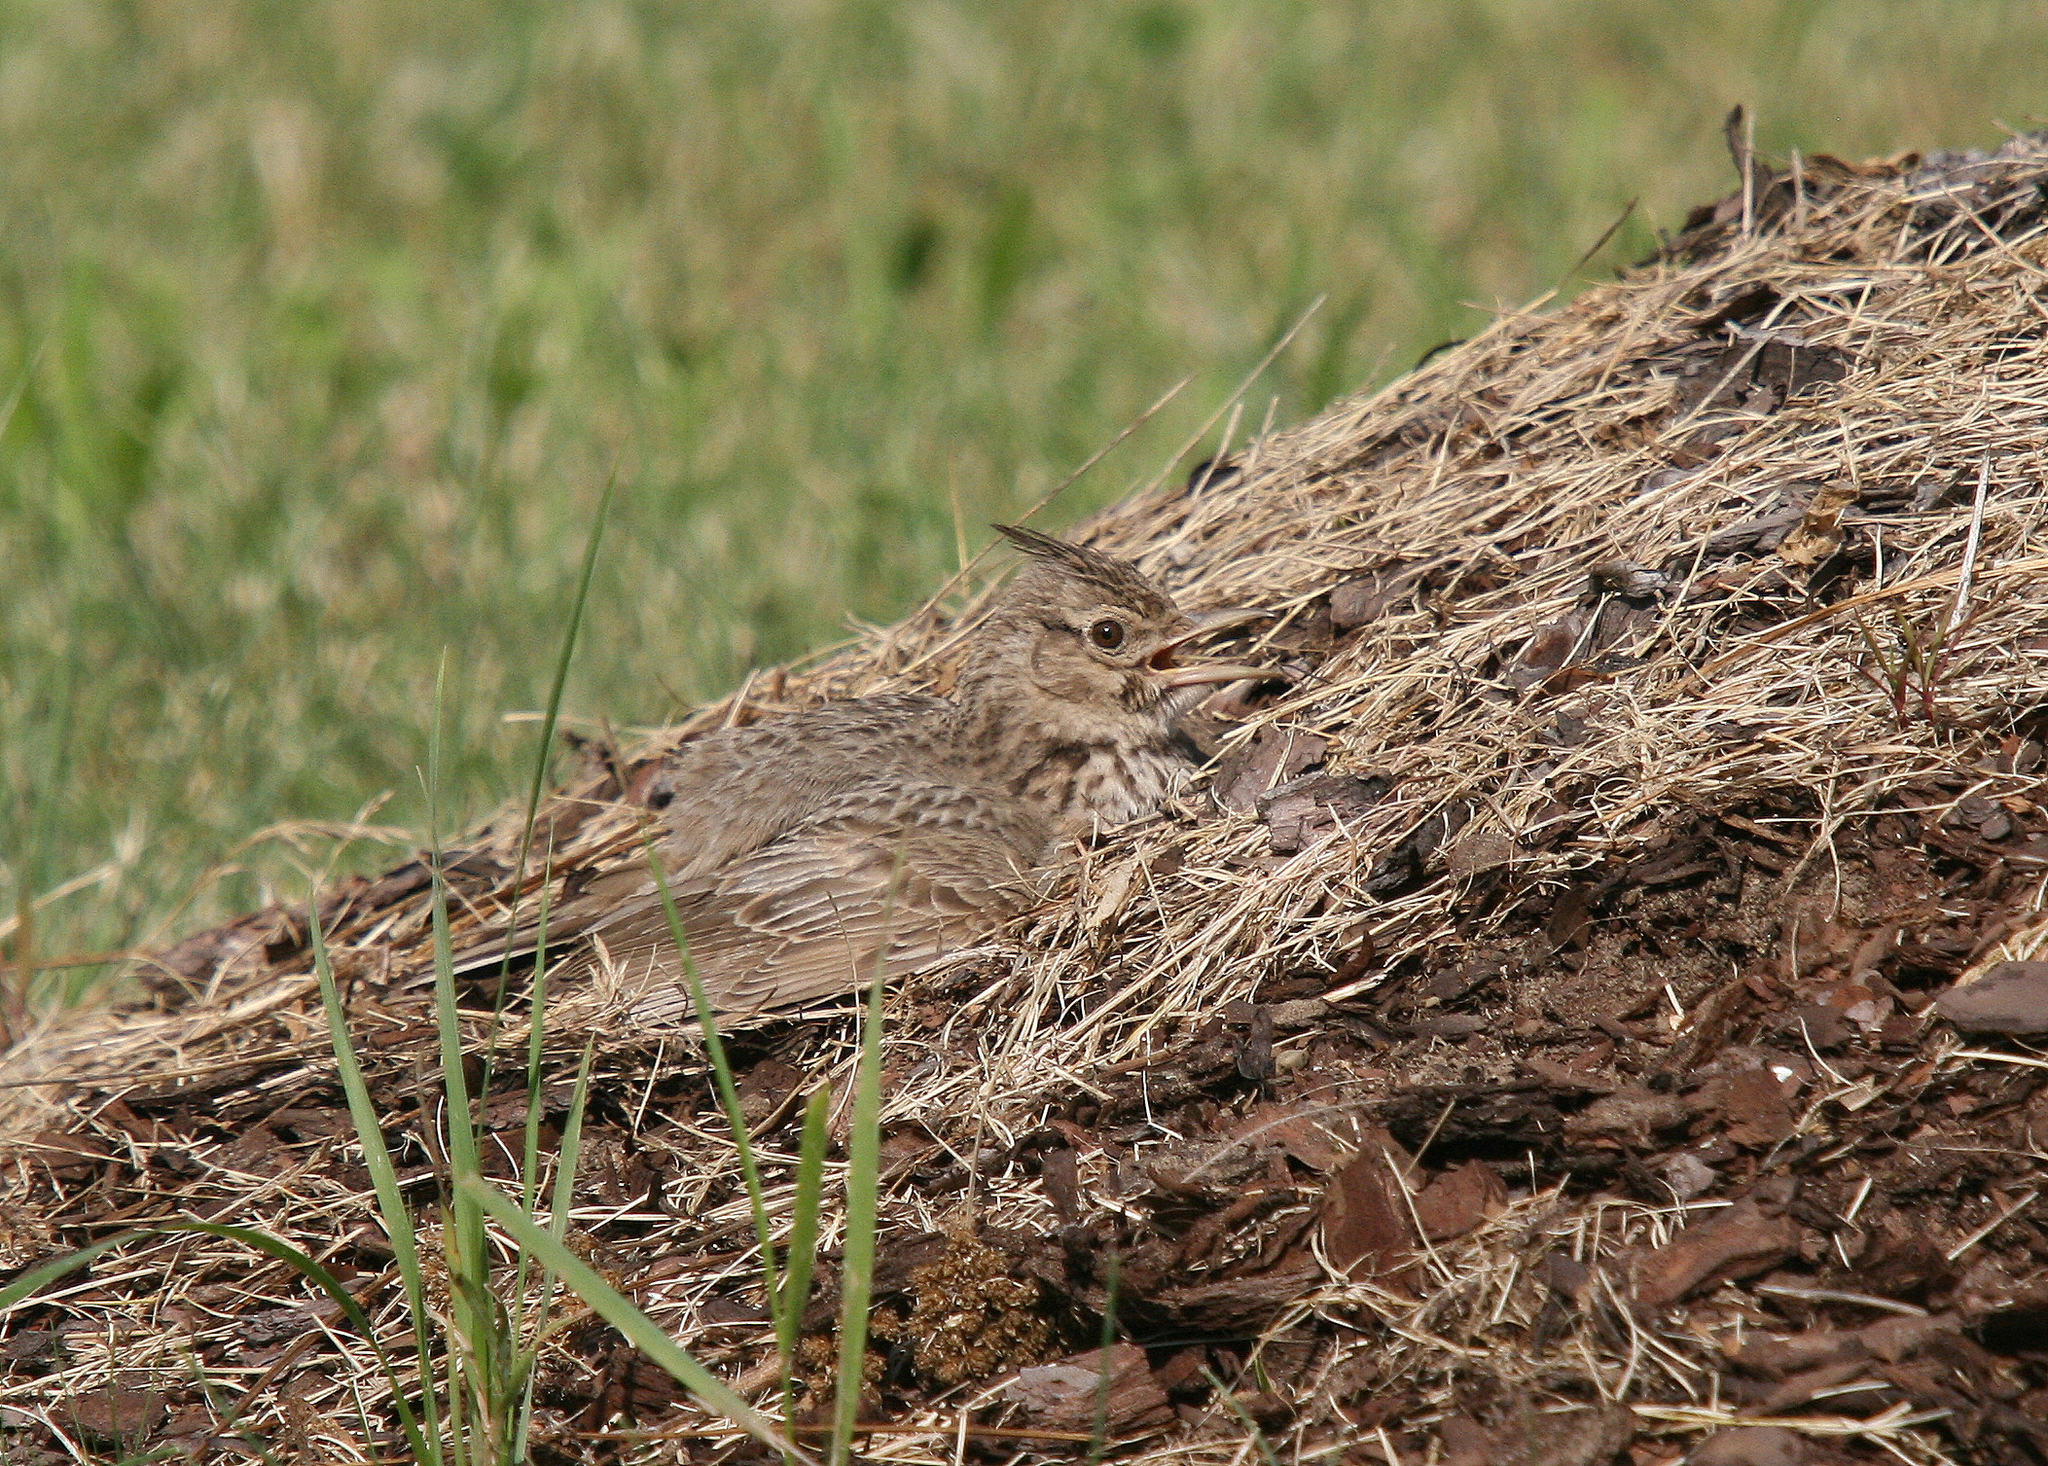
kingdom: Animalia
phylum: Chordata
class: Aves
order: Passeriformes
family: Alaudidae
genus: Galerida
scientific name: Galerida cristata
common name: Crested lark
